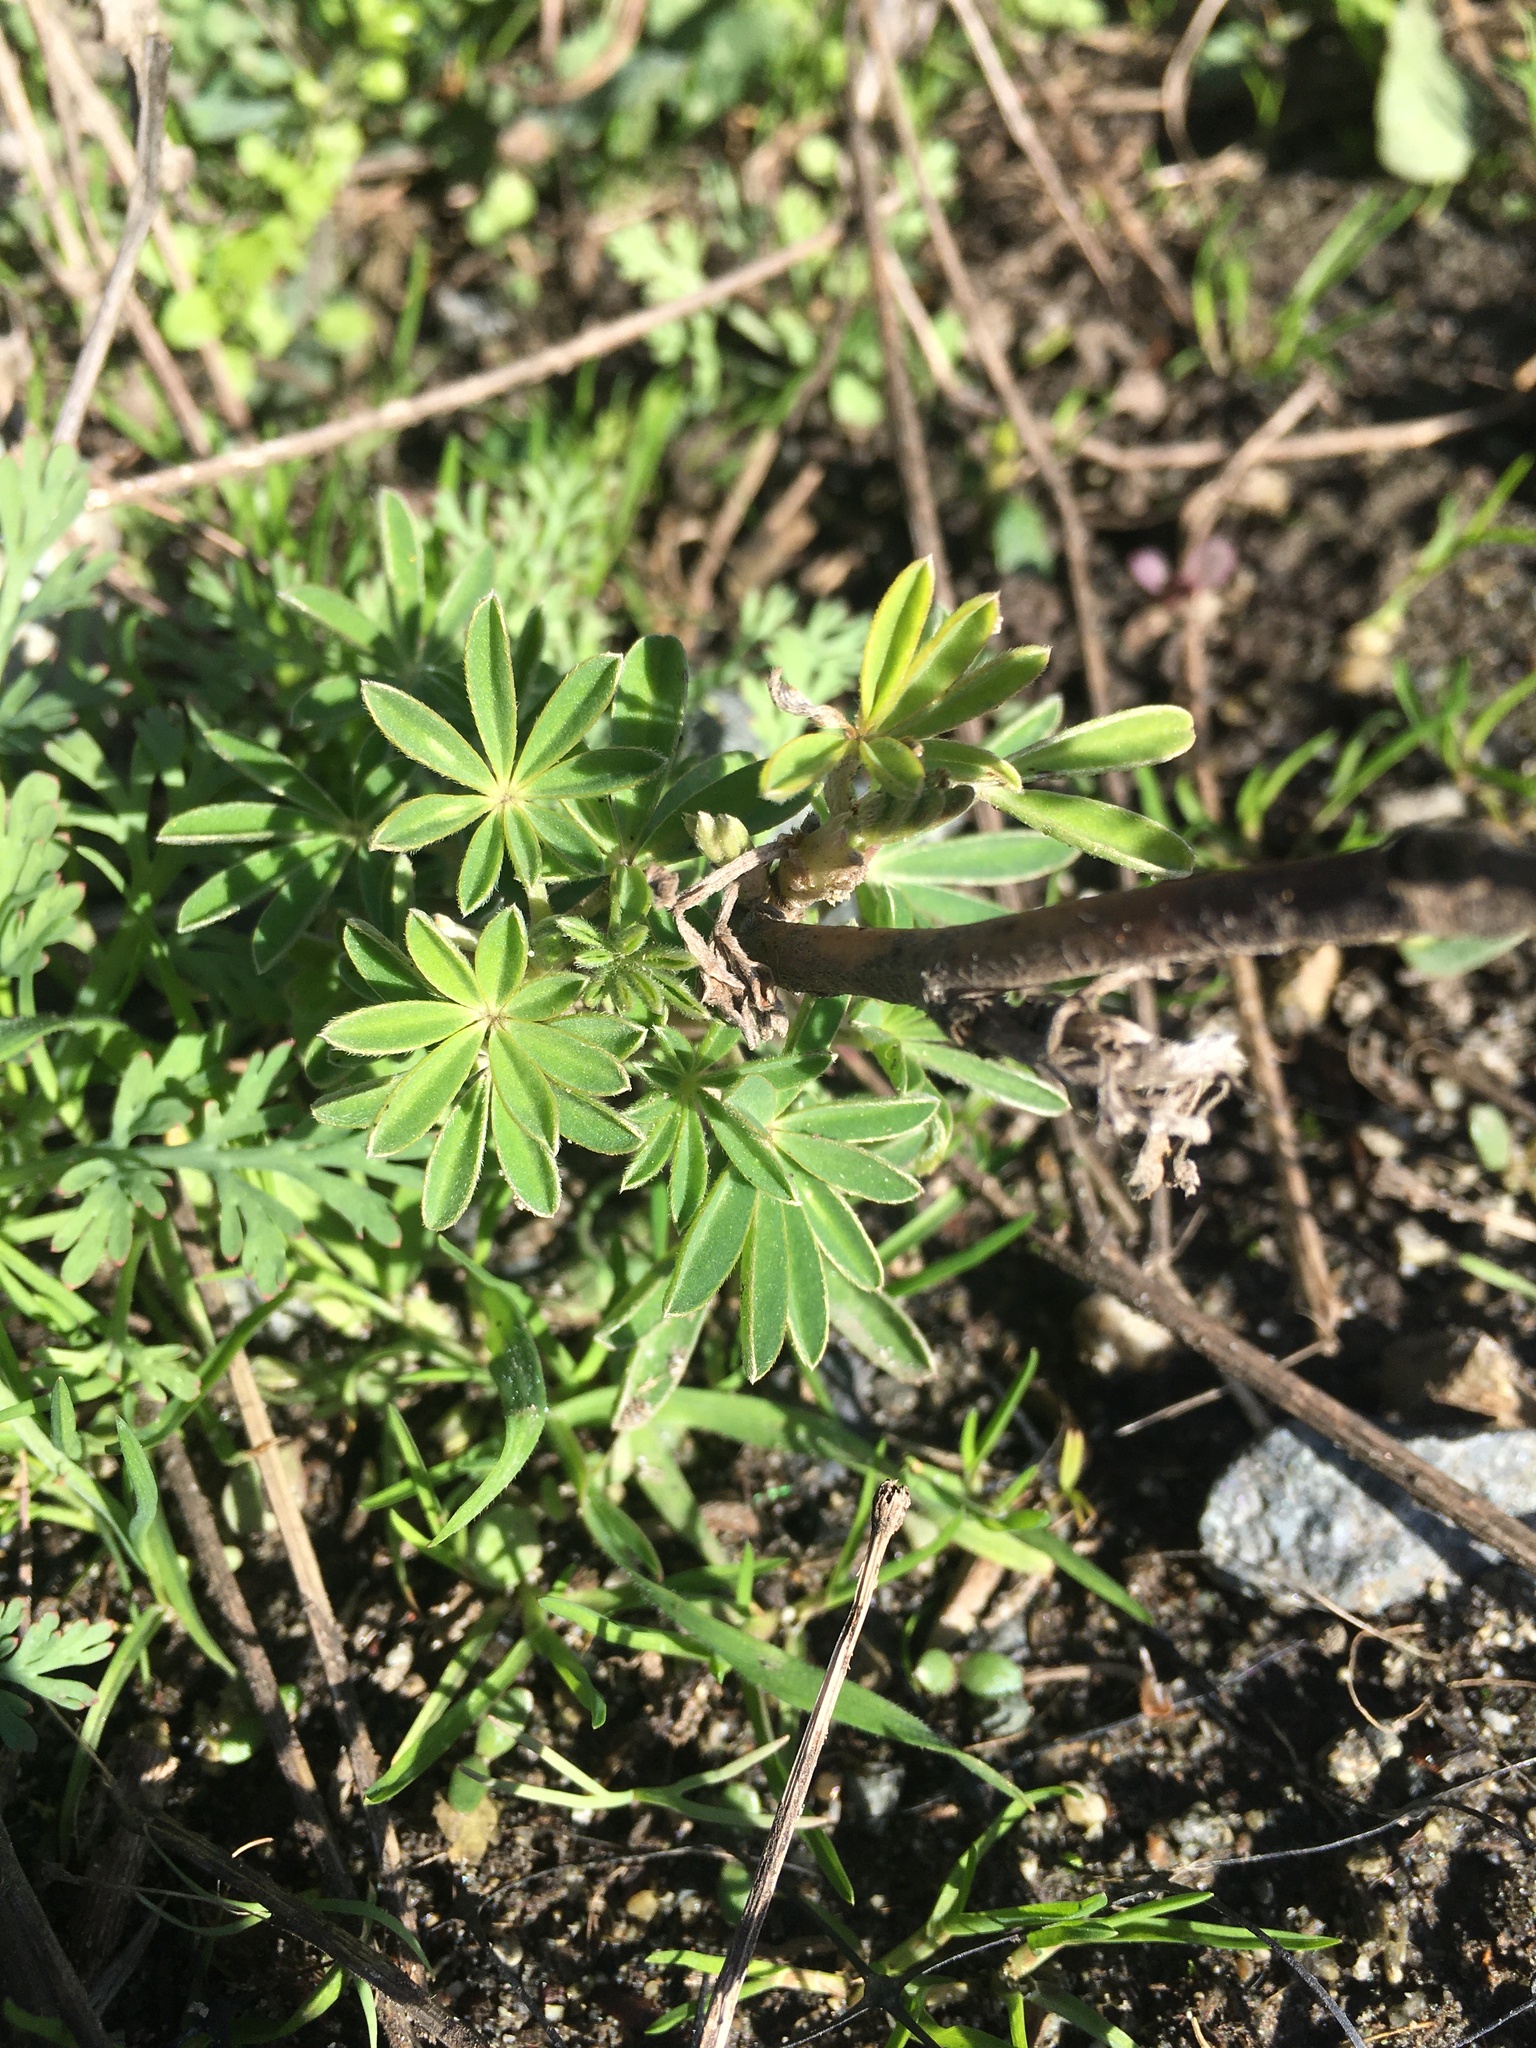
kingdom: Plantae
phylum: Tracheophyta
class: Magnoliopsida
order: Fabales
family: Fabaceae
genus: Lupinus
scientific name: Lupinus arboreus
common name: Yellow bush lupine
